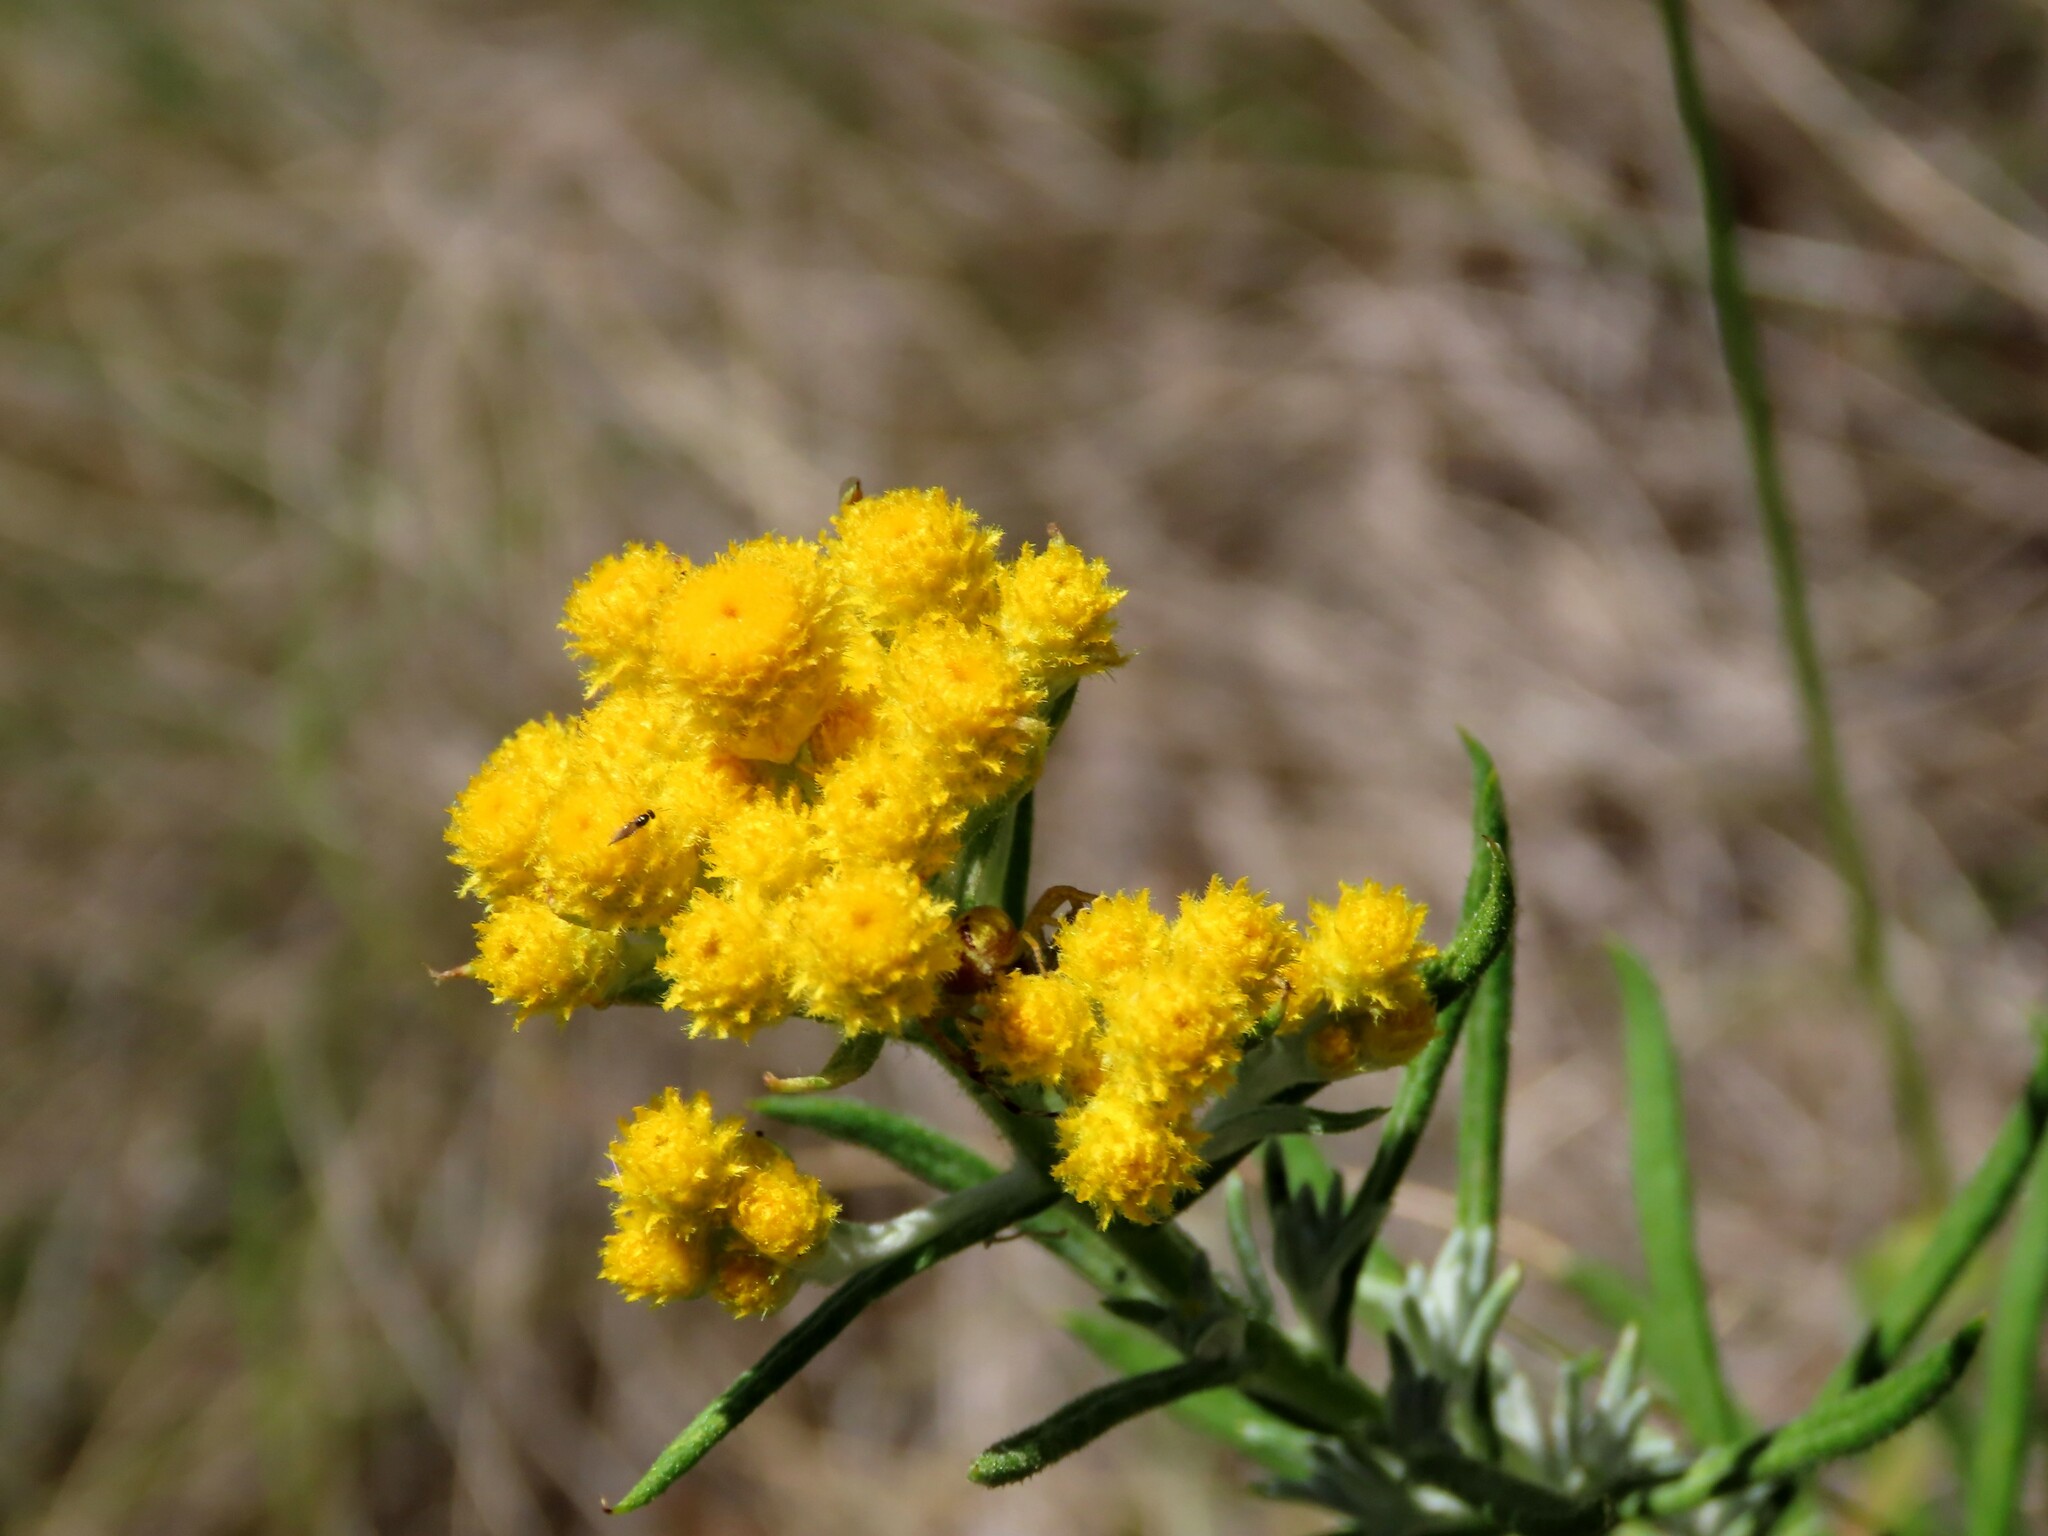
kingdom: Plantae
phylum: Tracheophyta
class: Magnoliopsida
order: Asterales
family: Asteraceae
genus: Chrysocephalum
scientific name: Chrysocephalum semipapposum
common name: Clustered everlasting
